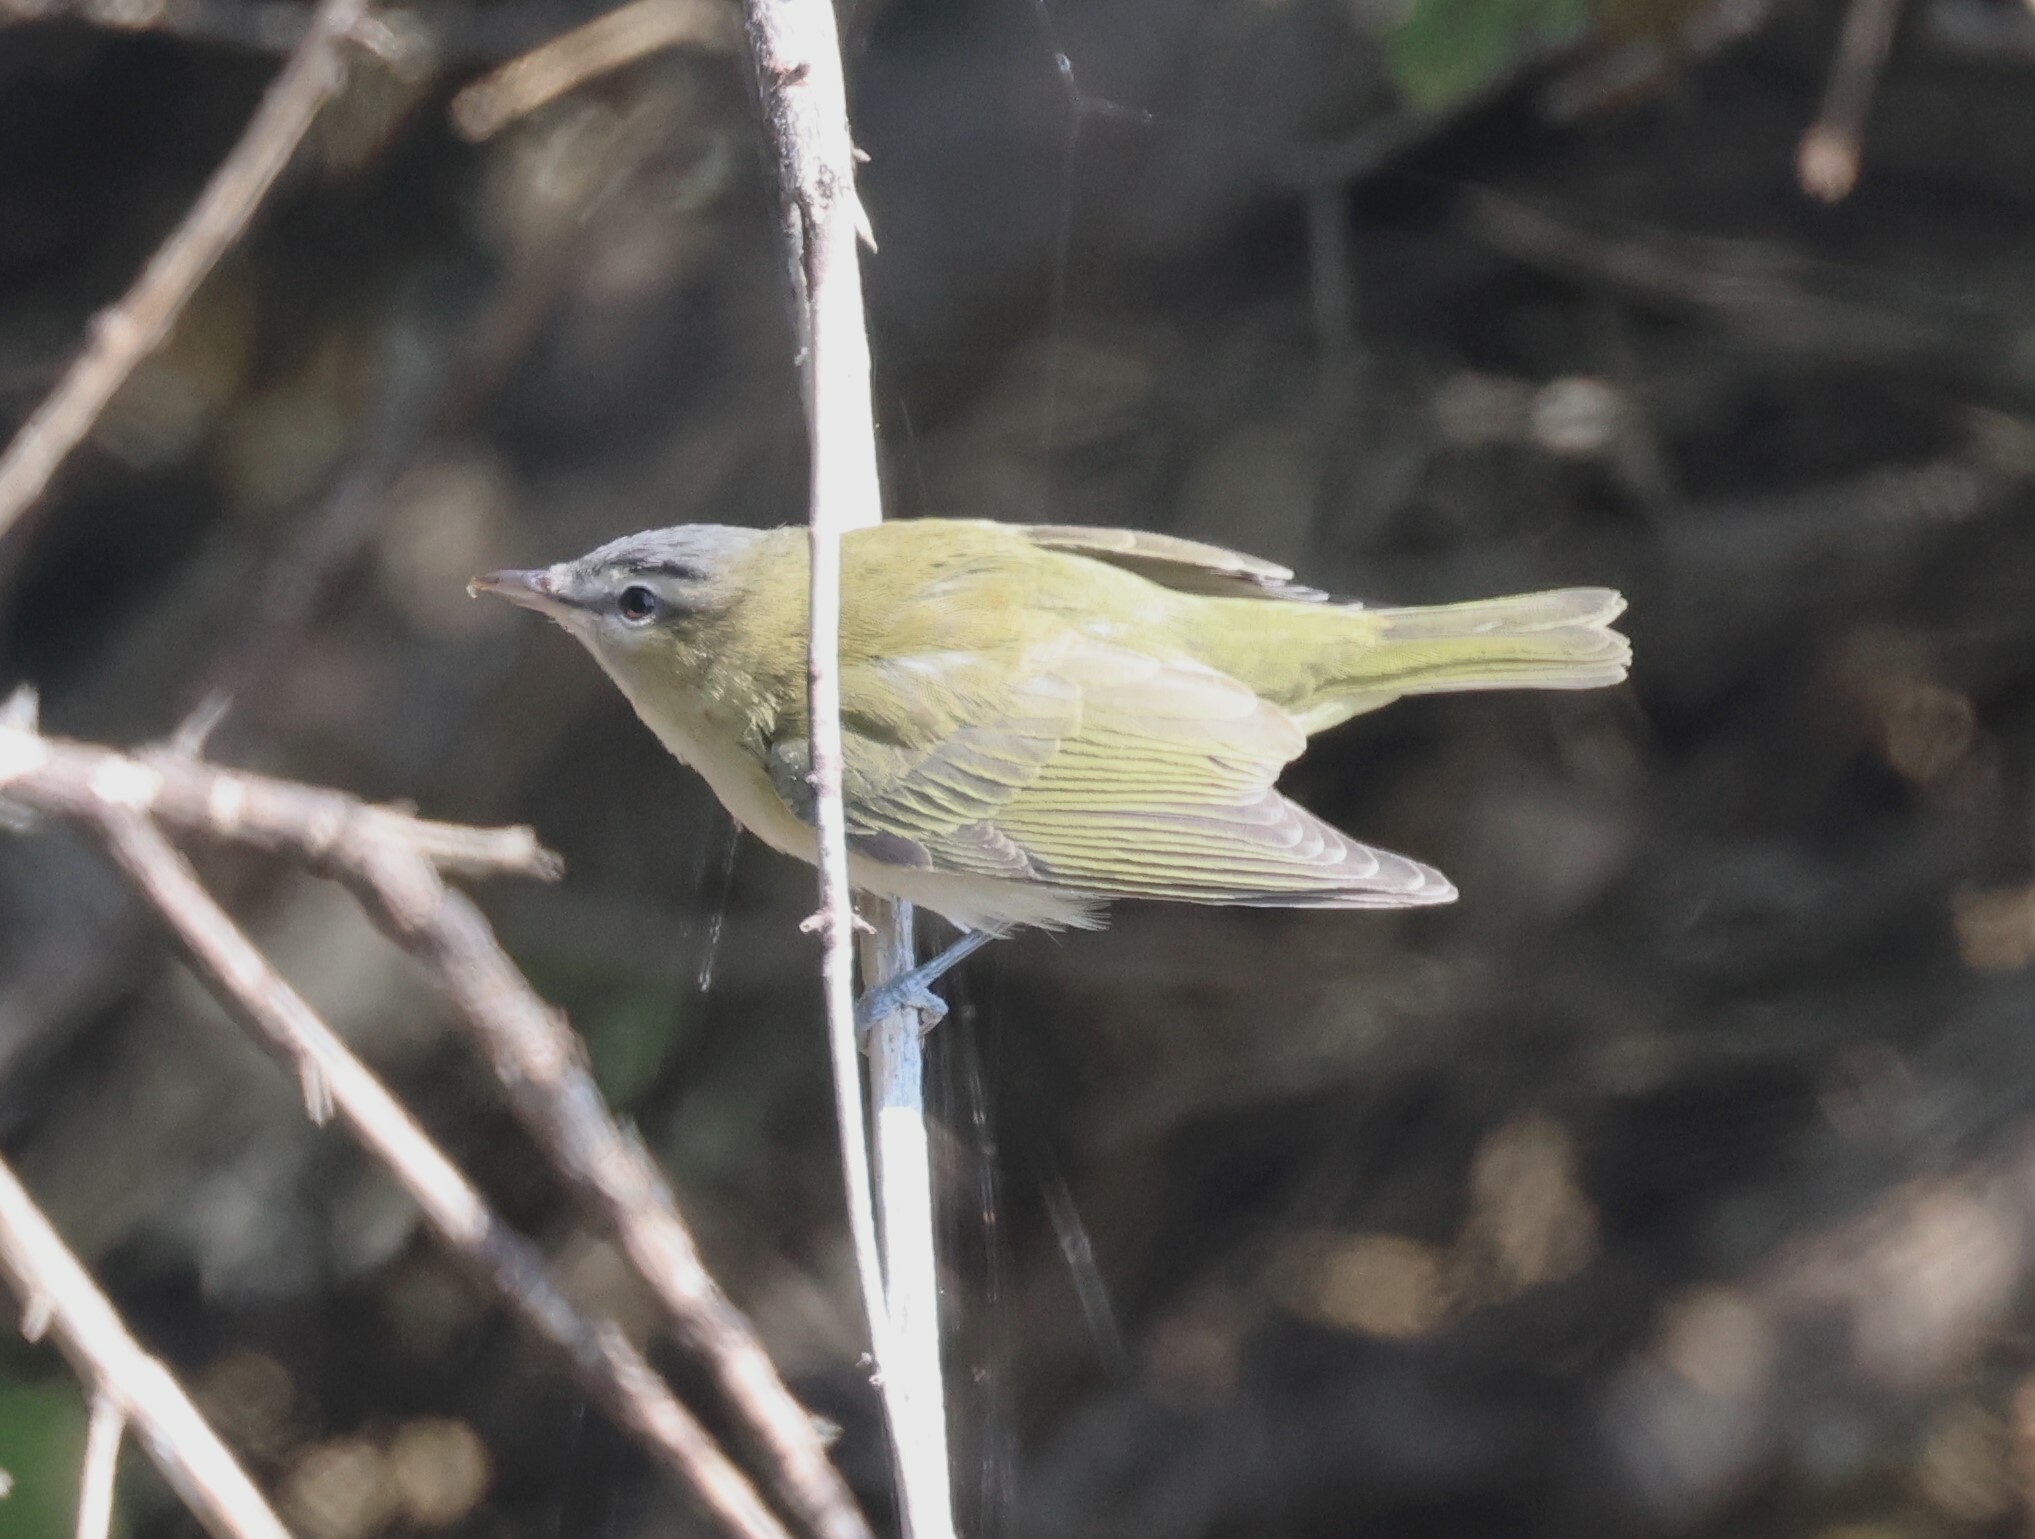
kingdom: Animalia
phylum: Chordata
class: Aves
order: Passeriformes
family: Vireonidae
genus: Vireo
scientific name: Vireo olivaceus
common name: Red-eyed vireo
